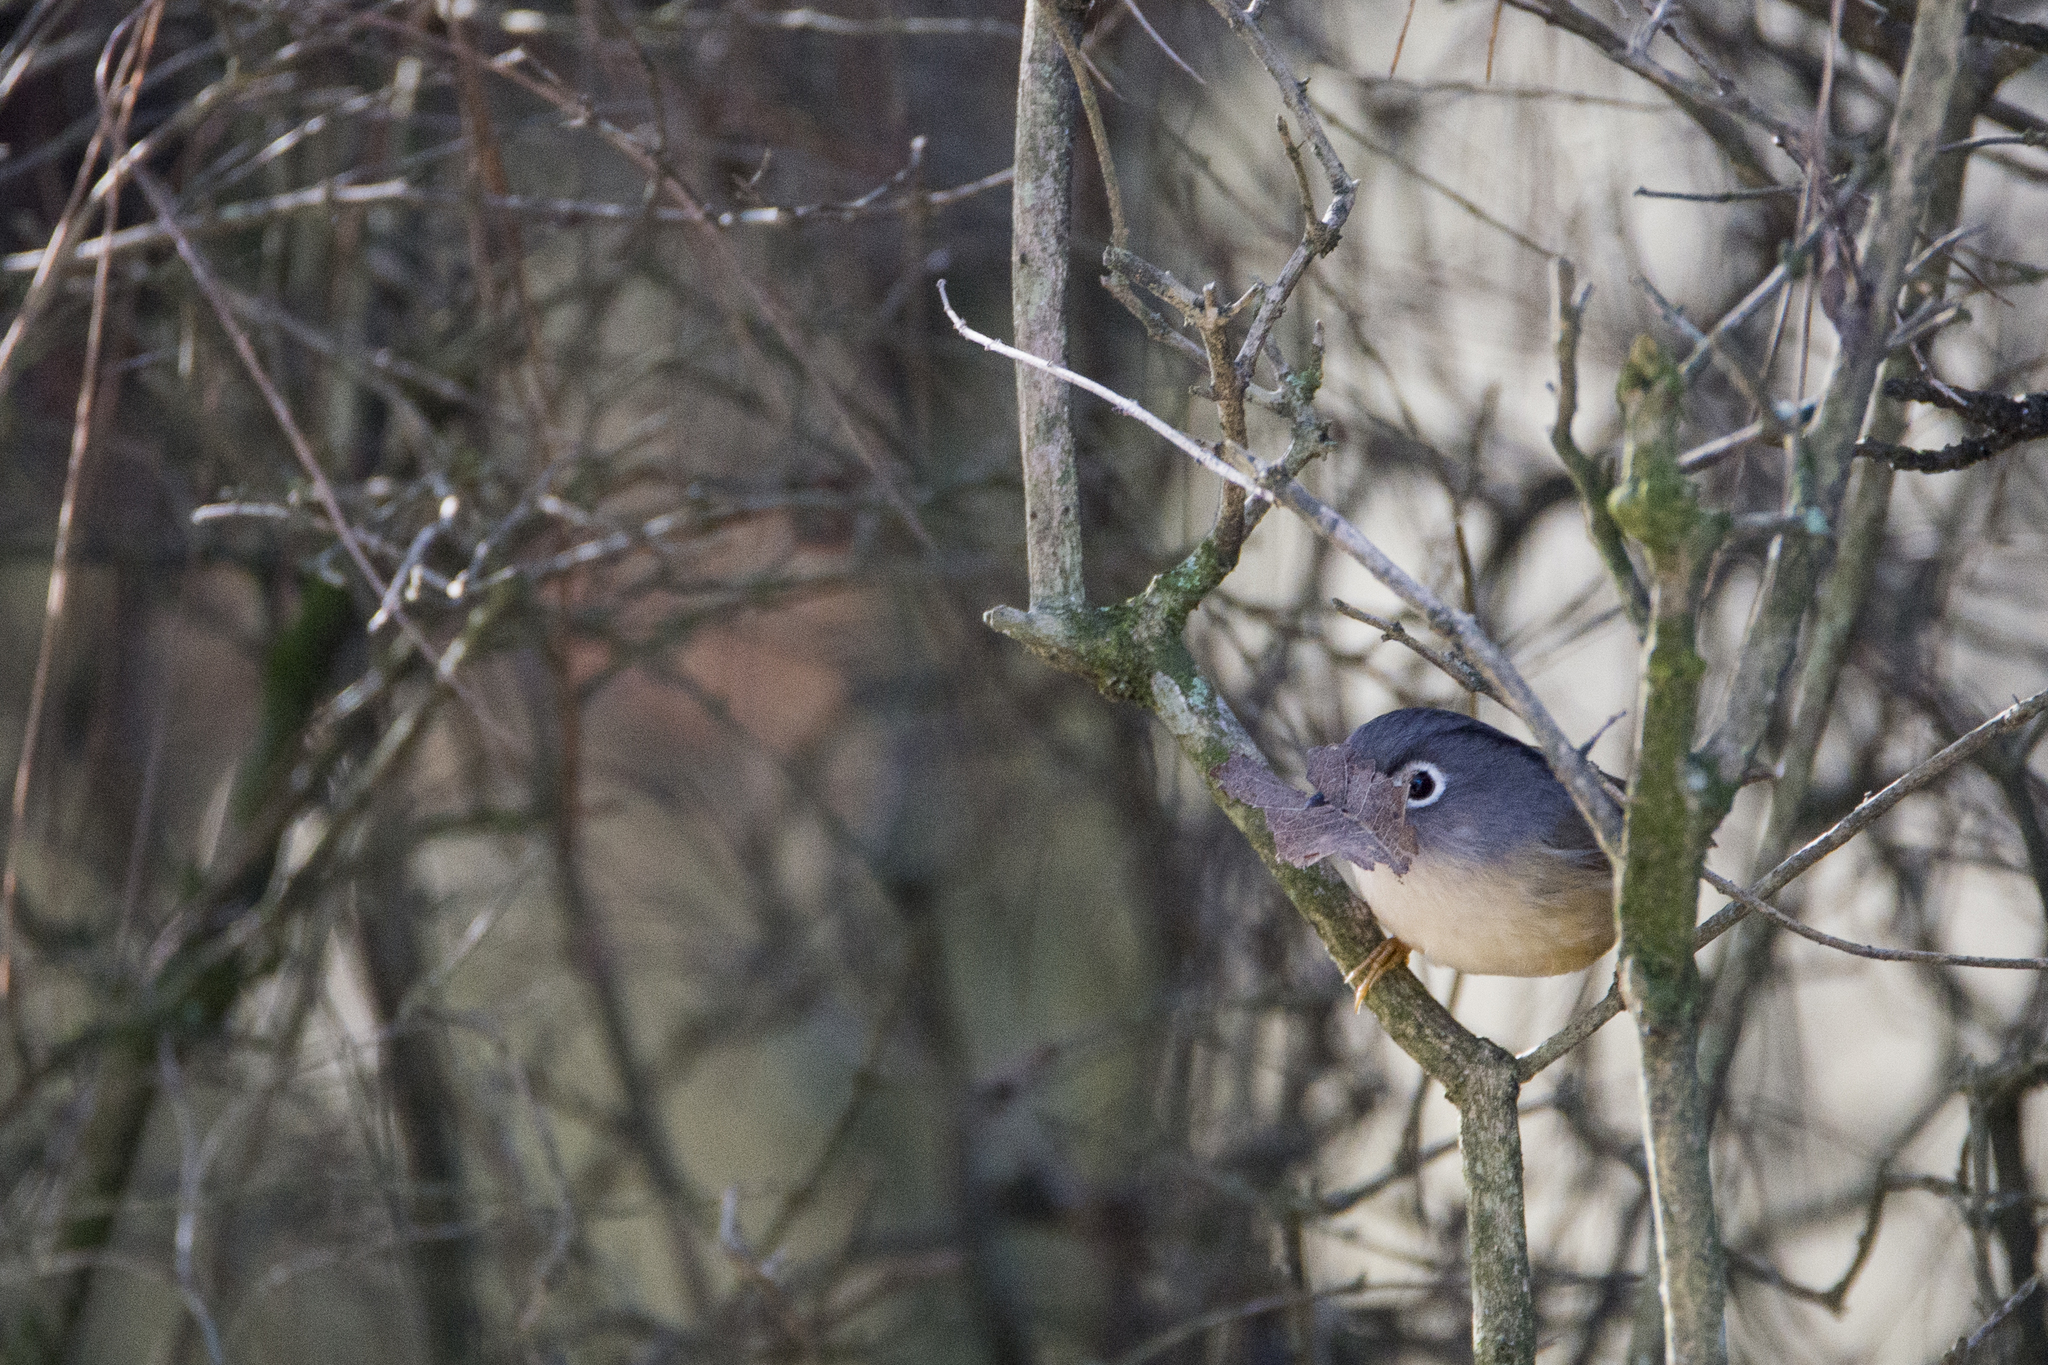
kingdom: Animalia
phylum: Chordata
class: Aves
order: Passeriformes
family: Pellorneidae
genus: Alcippe
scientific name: Alcippe morrisonia
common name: Grey-cheeked fulvetta
